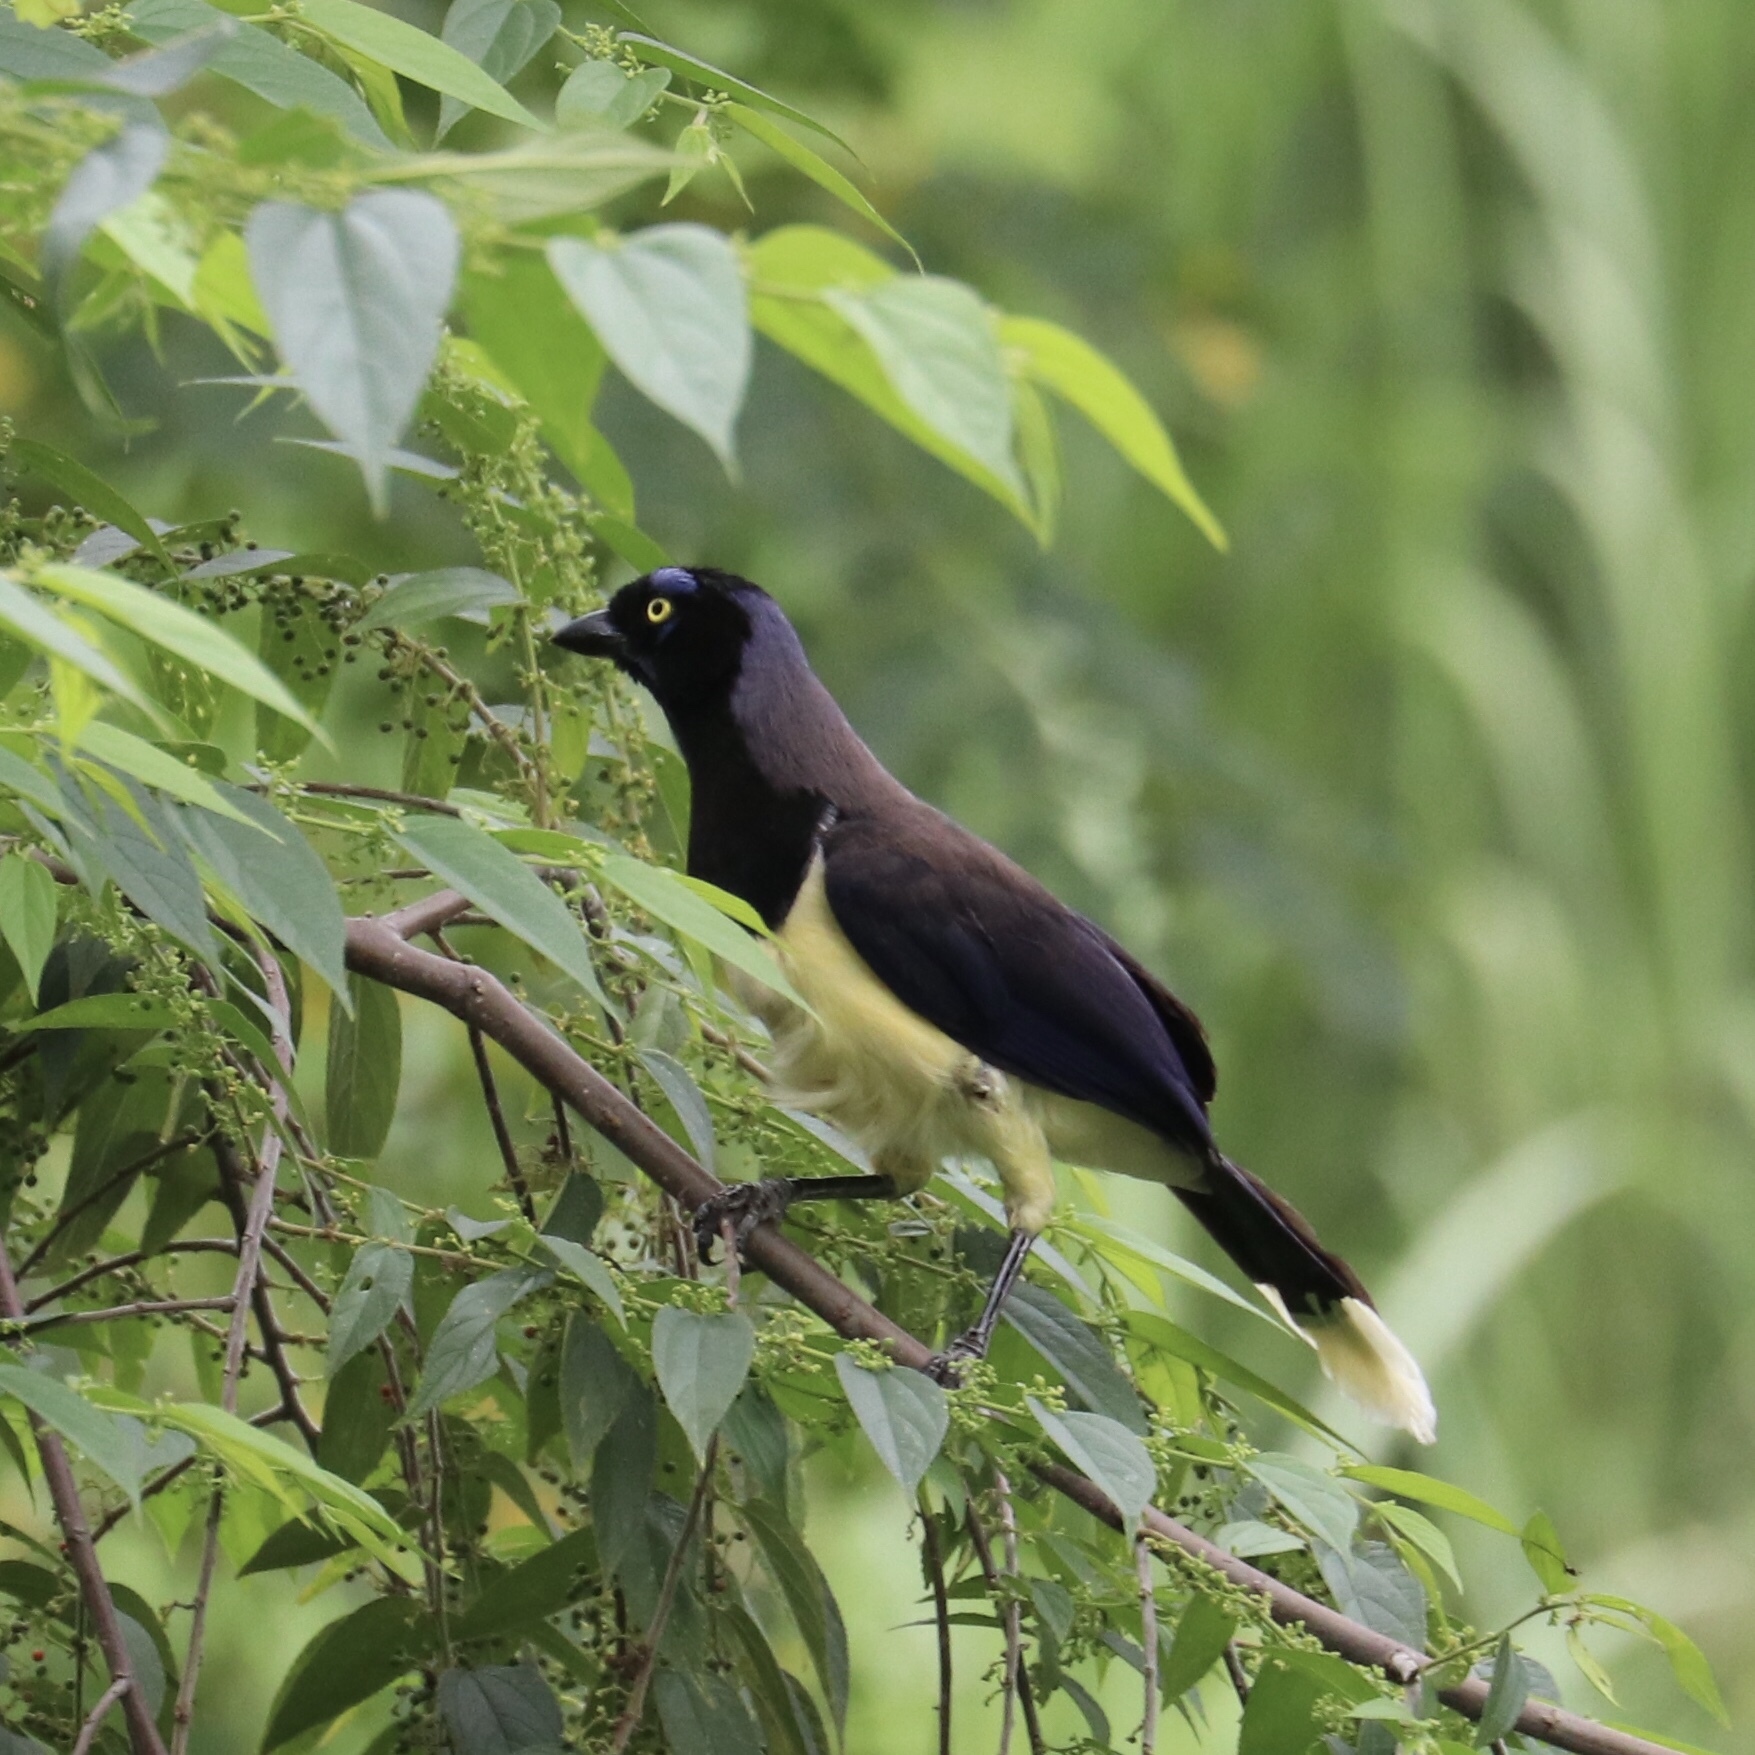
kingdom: Animalia
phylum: Chordata
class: Aves
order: Passeriformes
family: Corvidae
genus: Cyanocorax
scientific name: Cyanocorax affinis
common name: Black-chested jay
